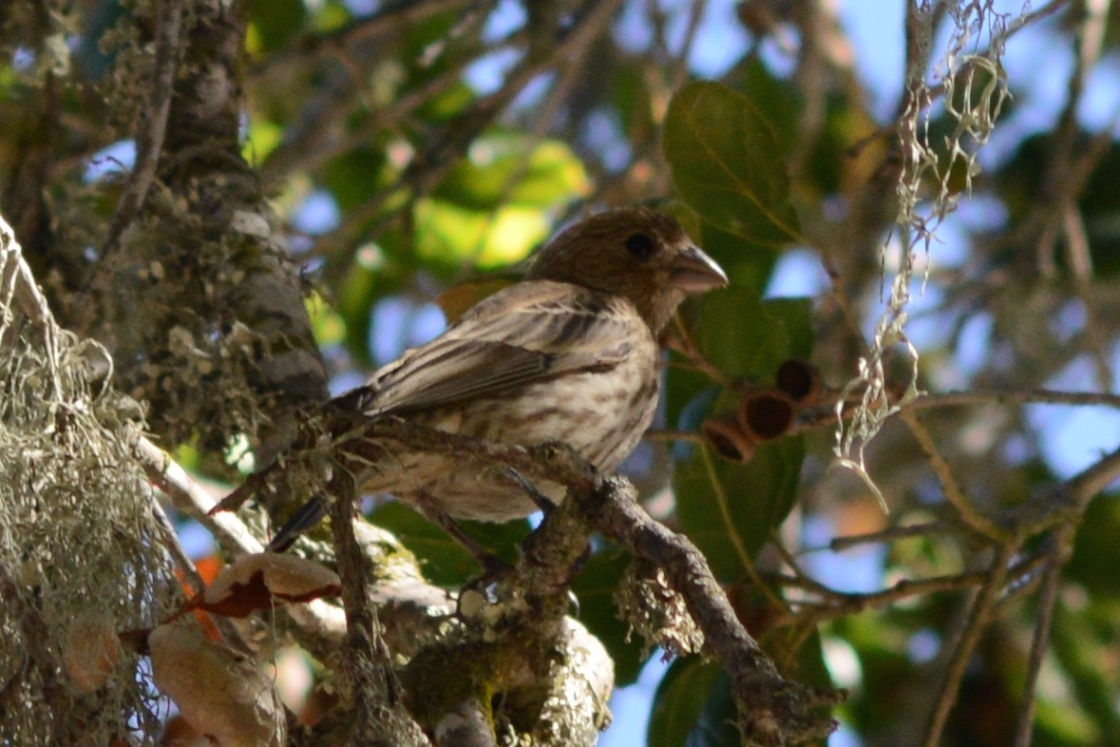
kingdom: Animalia
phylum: Chordata
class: Aves
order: Passeriformes
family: Fringillidae
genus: Haemorhous
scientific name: Haemorhous mexicanus
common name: House finch
